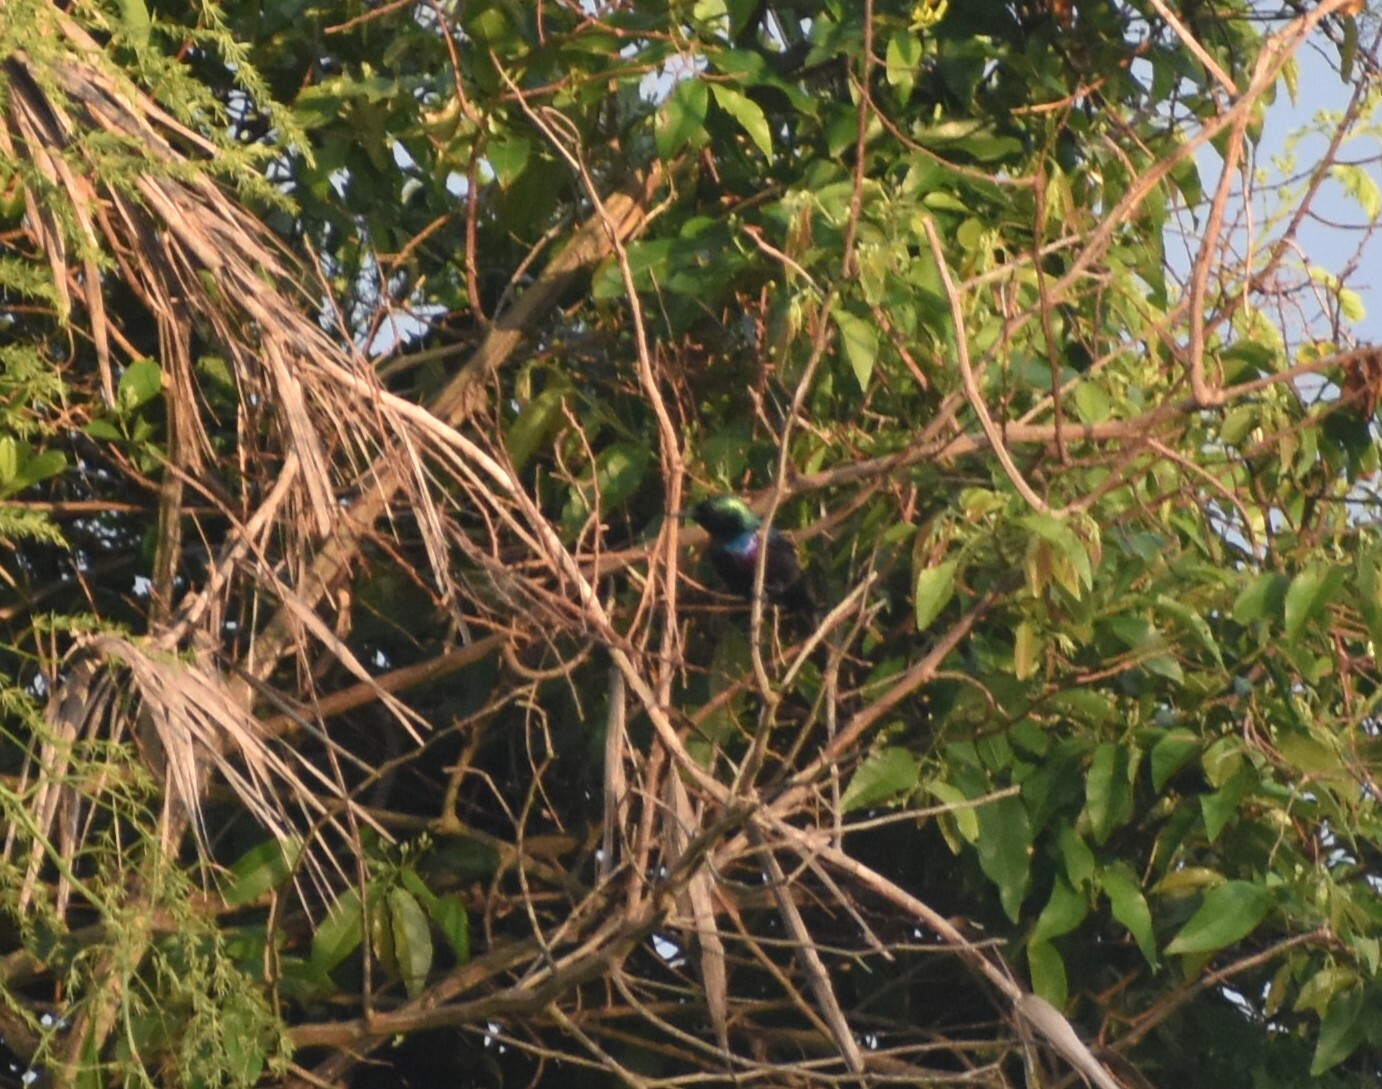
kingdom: Animalia
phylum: Chordata
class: Aves
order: Passeriformes
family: Nectariniidae
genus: Cinnyris
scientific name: Cinnyris bifasciatus
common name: Purple-banded sunbird
